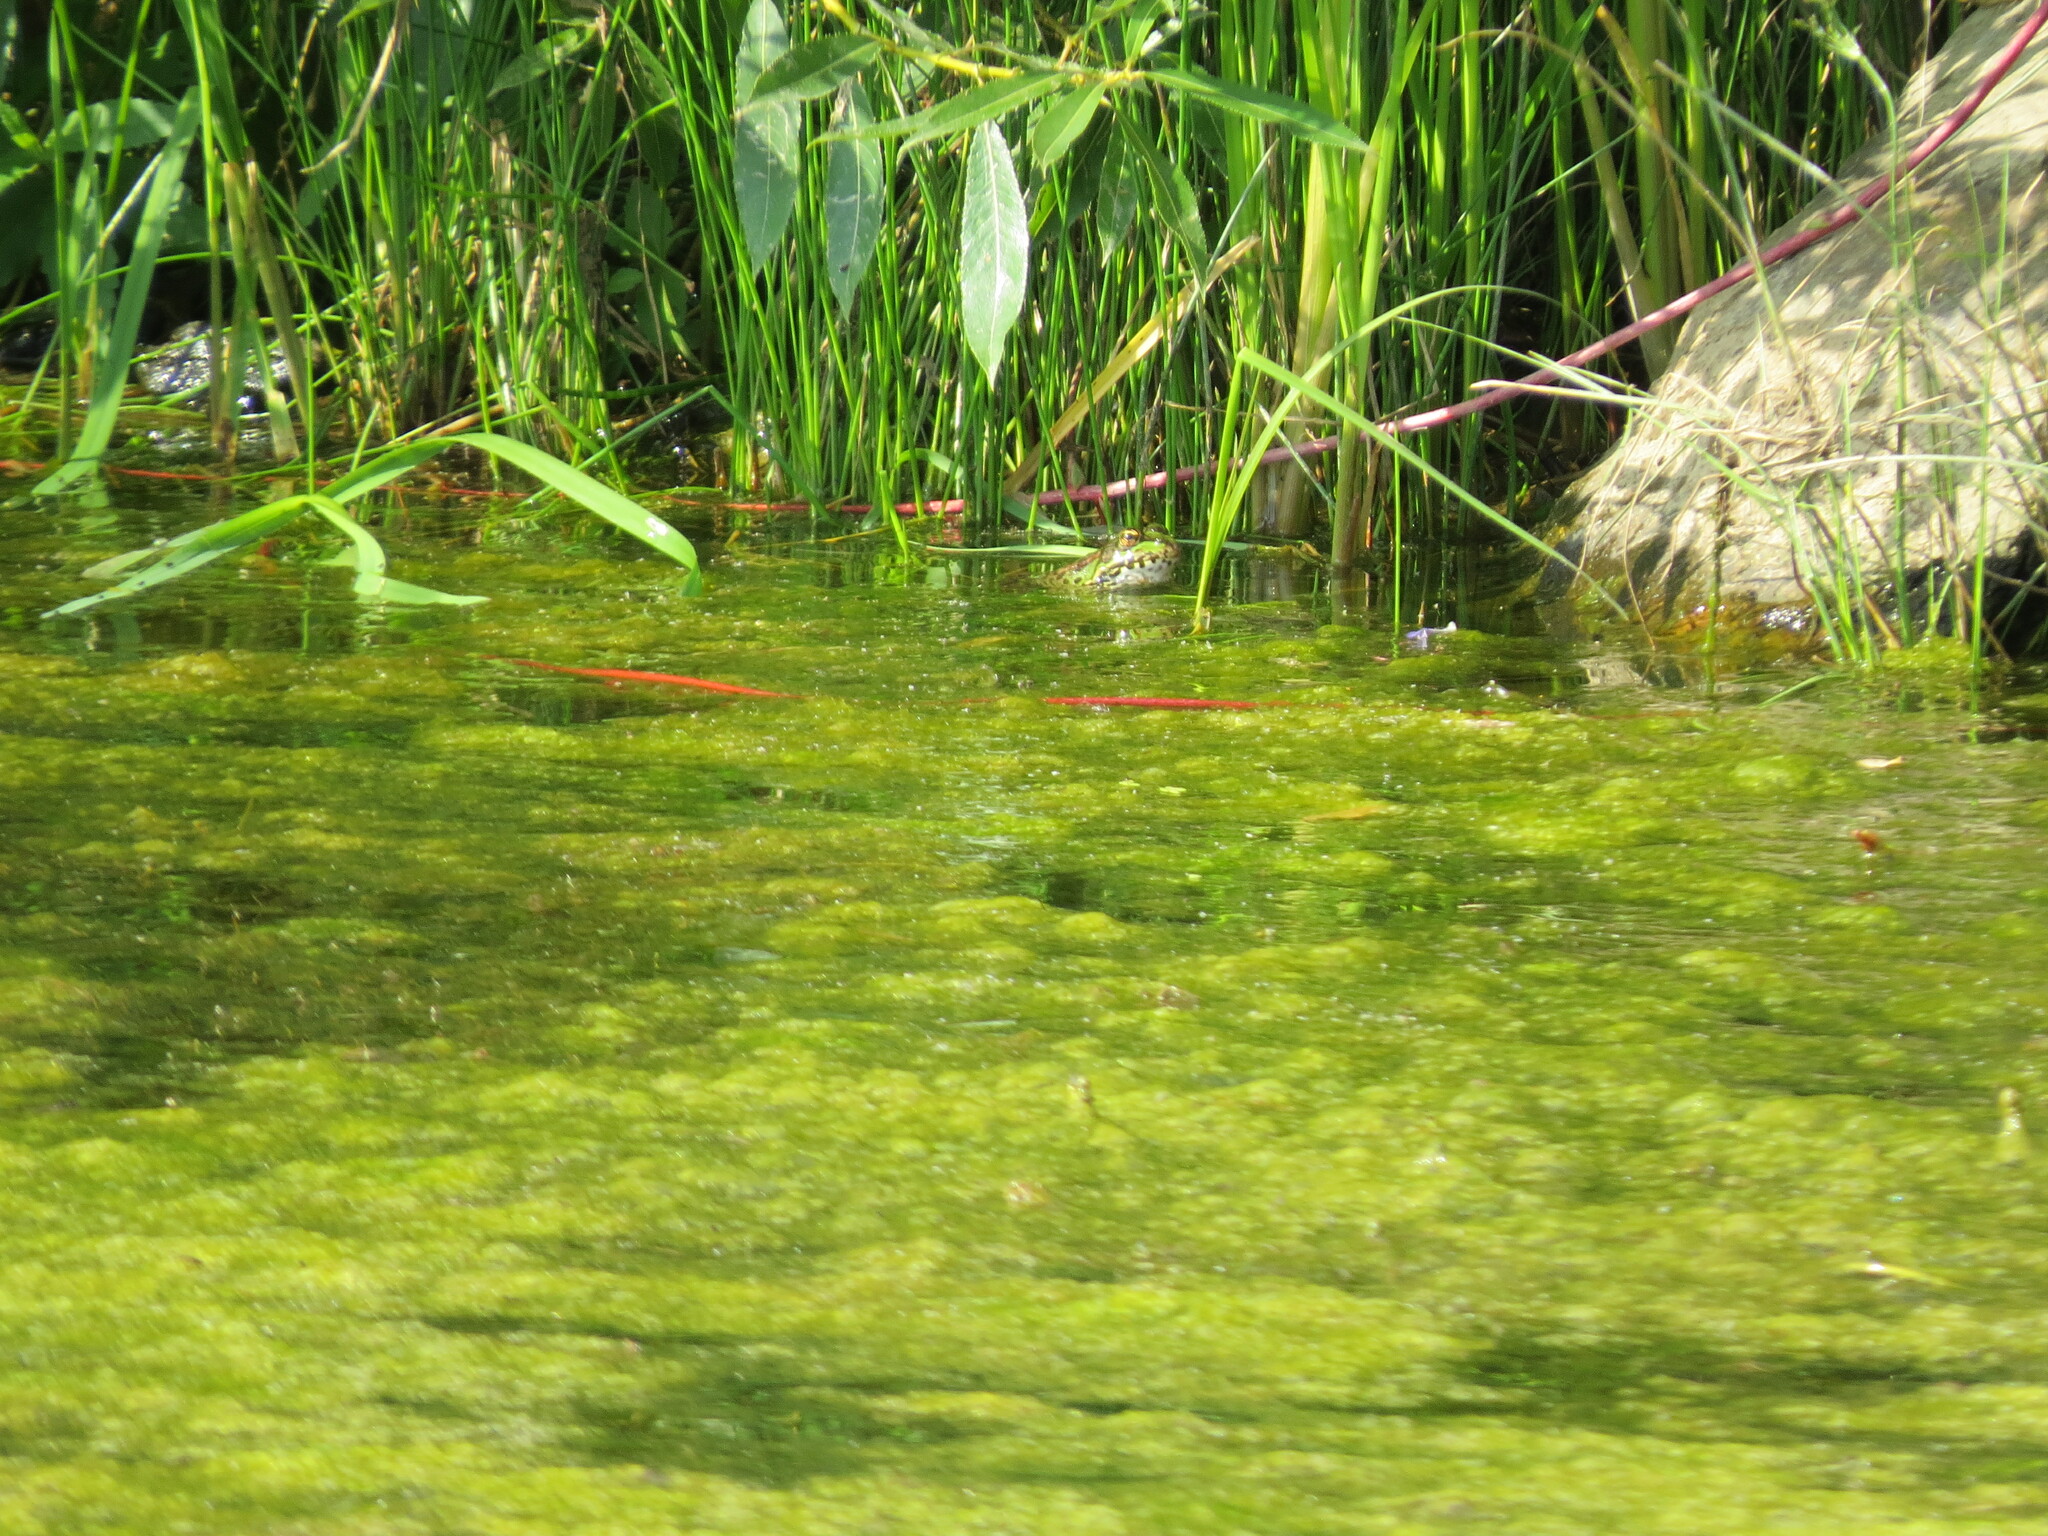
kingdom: Animalia
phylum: Chordata
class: Amphibia
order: Anura
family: Ranidae
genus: Pelophylax
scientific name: Pelophylax ridibundus
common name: Marsh frog
